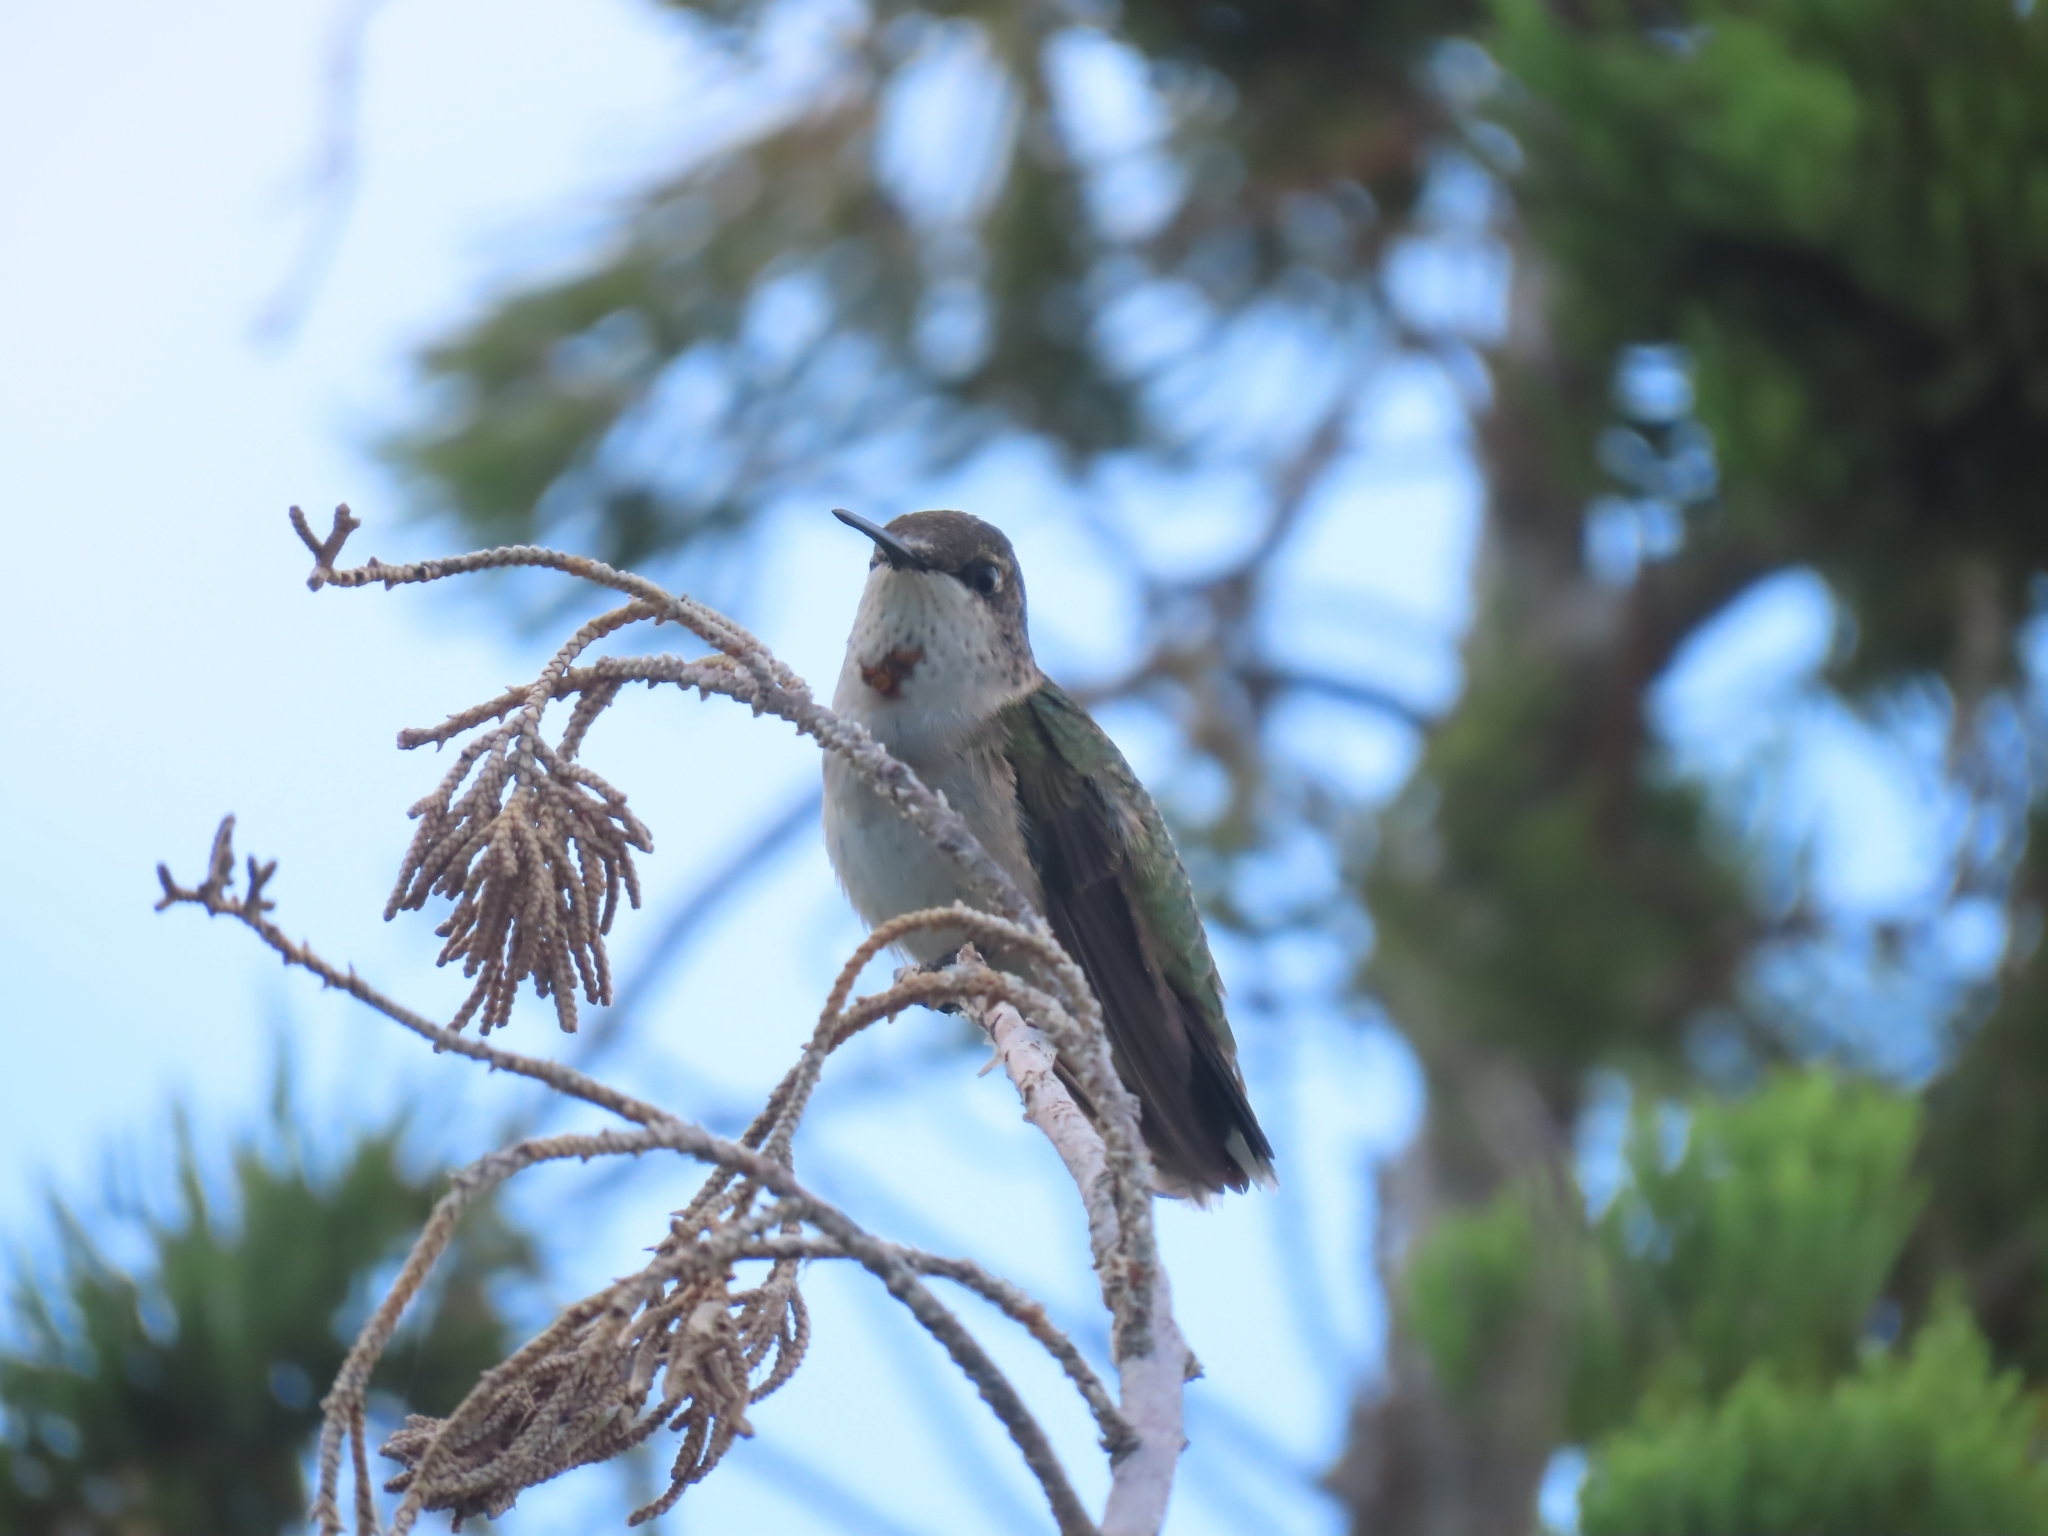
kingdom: Animalia
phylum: Chordata
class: Aves
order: Apodiformes
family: Trochilidae
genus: Archilochus
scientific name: Archilochus colubris
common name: Ruby-throated hummingbird
